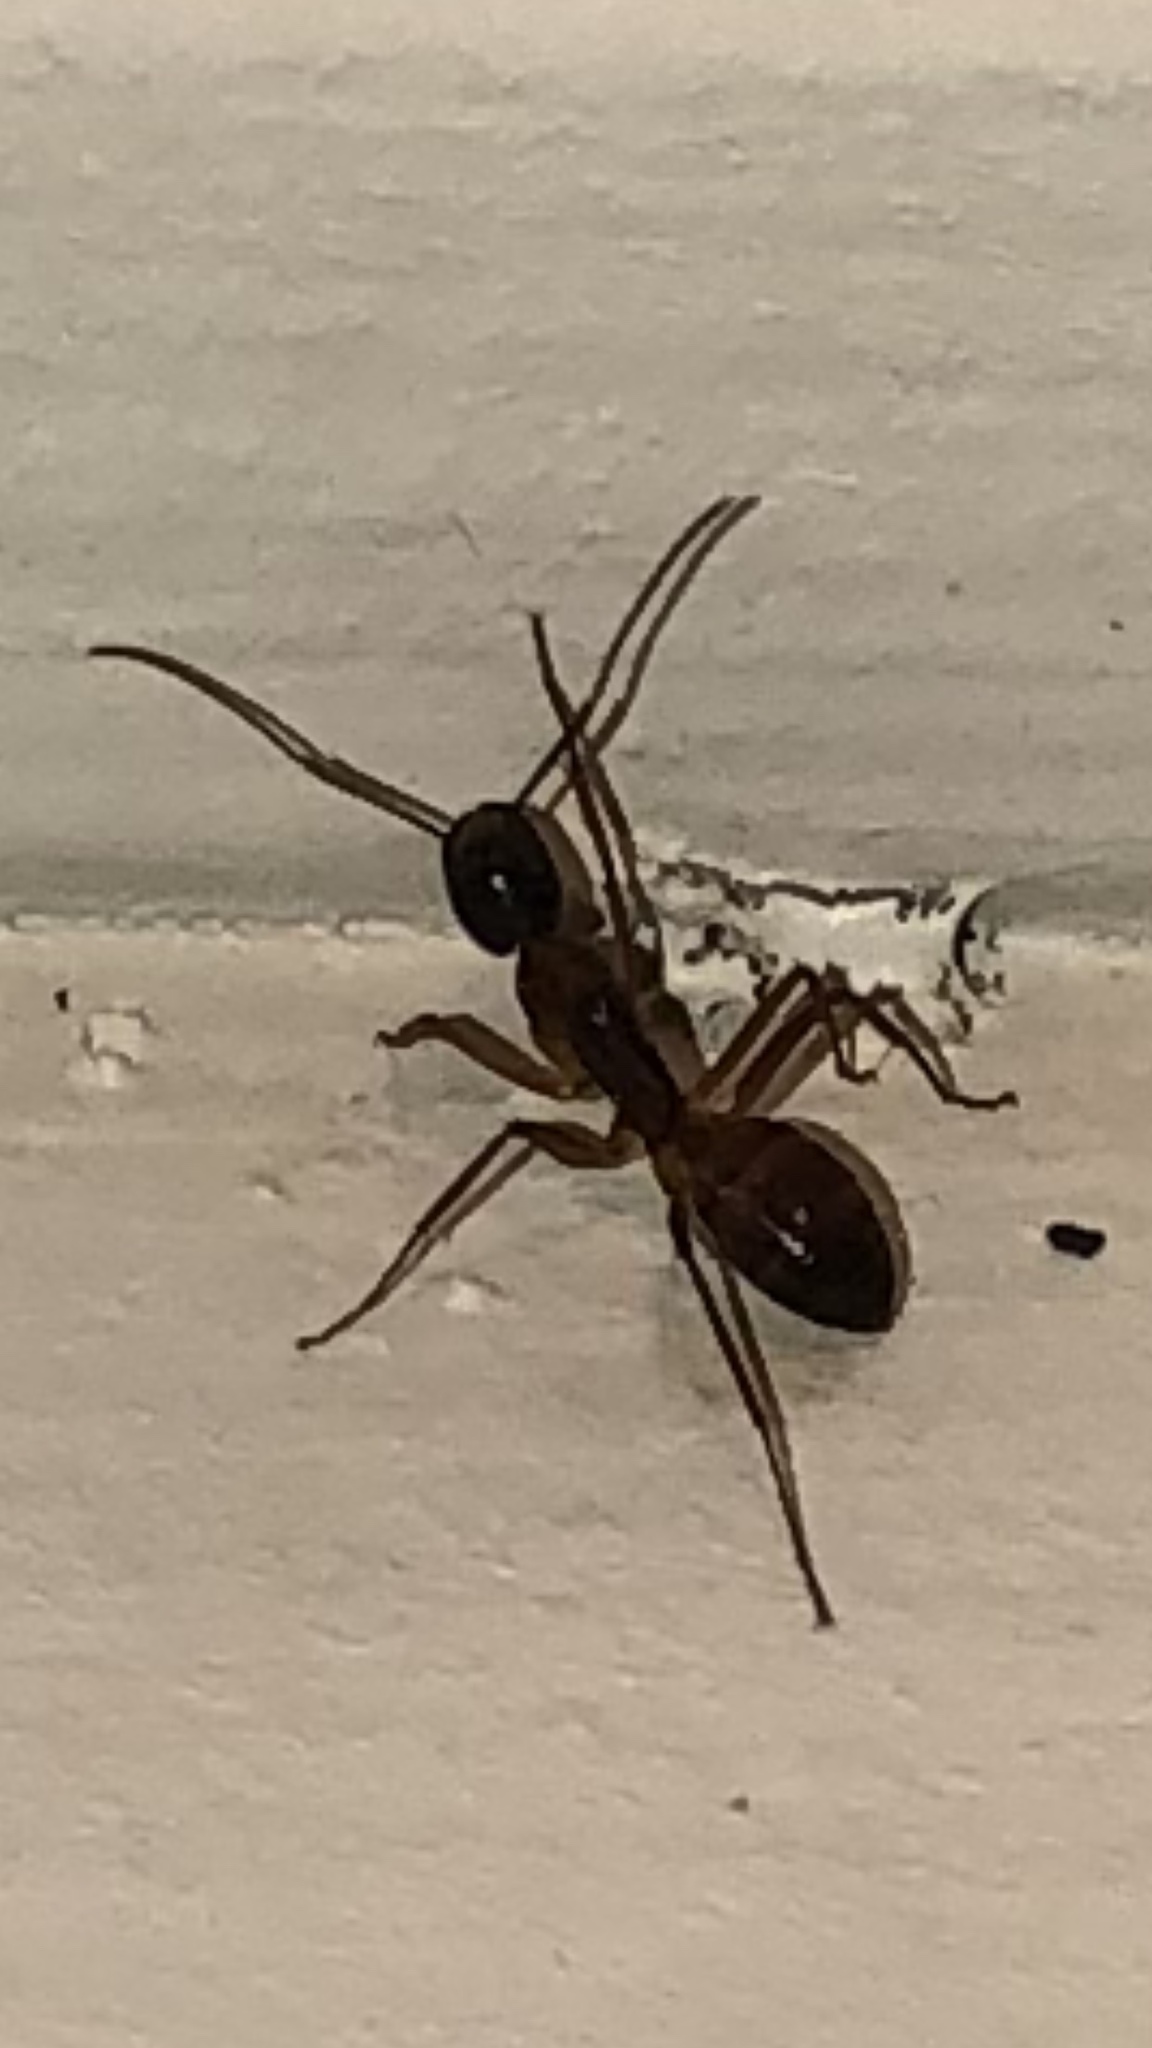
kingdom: Animalia
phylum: Arthropoda
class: Insecta
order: Hymenoptera
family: Formicidae
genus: Camponotus
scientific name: Camponotus americanus
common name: American carpenter ant
